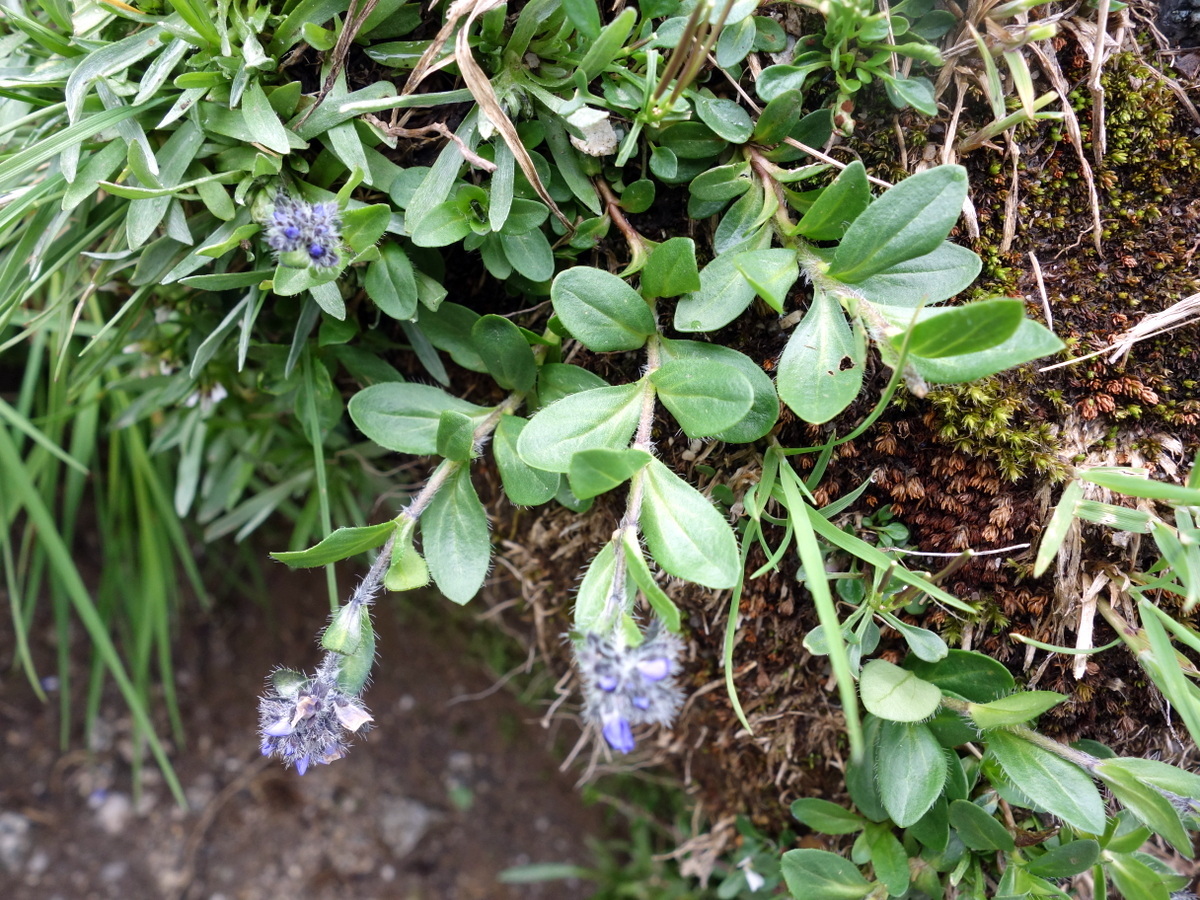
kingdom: Plantae
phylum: Tracheophyta
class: Magnoliopsida
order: Lamiales
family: Plantaginaceae
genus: Veronica
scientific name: Veronica alpina
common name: Alpine speedwell
